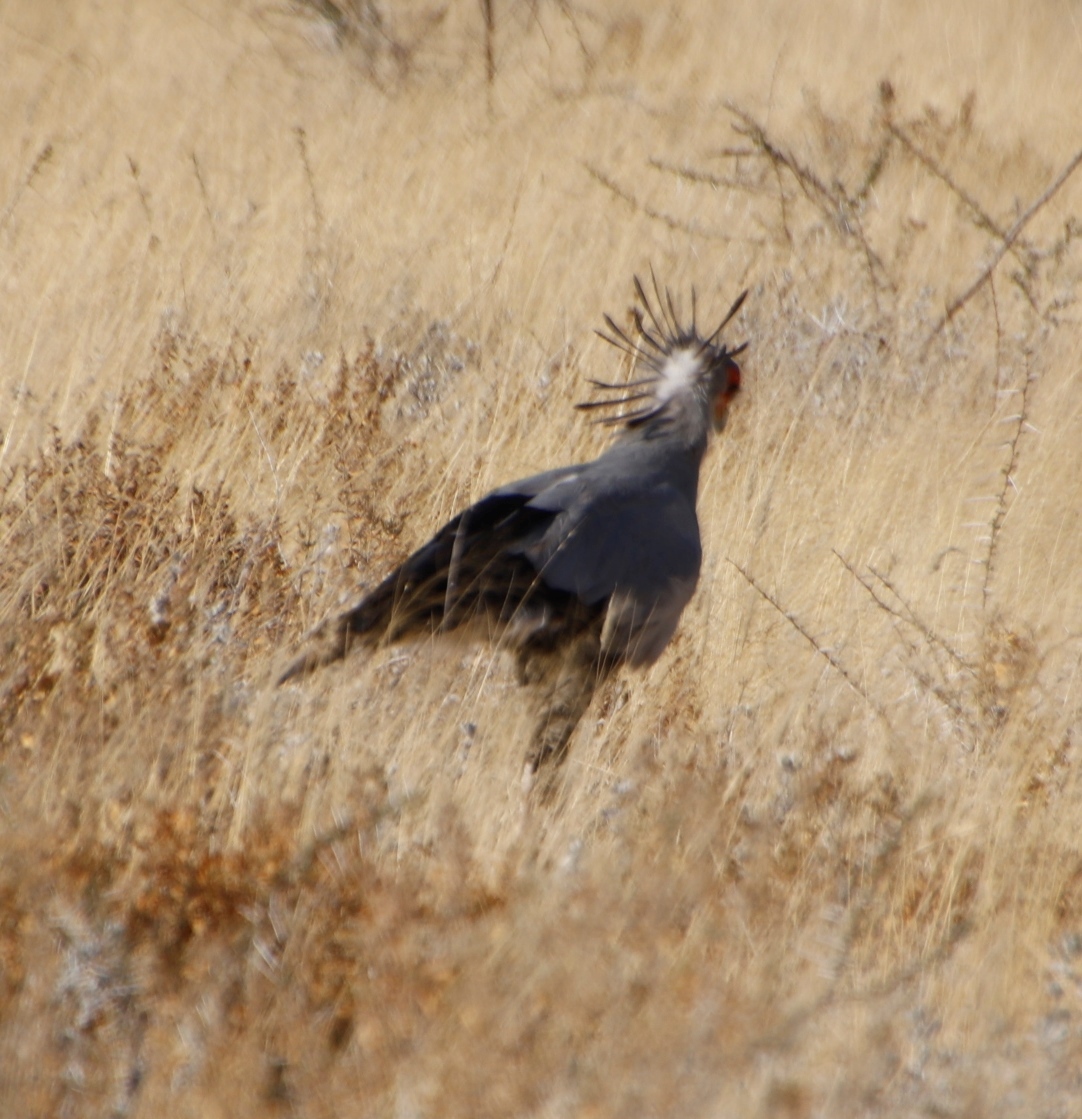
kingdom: Animalia
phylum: Chordata
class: Aves
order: Accipitriformes
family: Sagittariidae
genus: Sagittarius
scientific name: Sagittarius serpentarius
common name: Secretarybird
